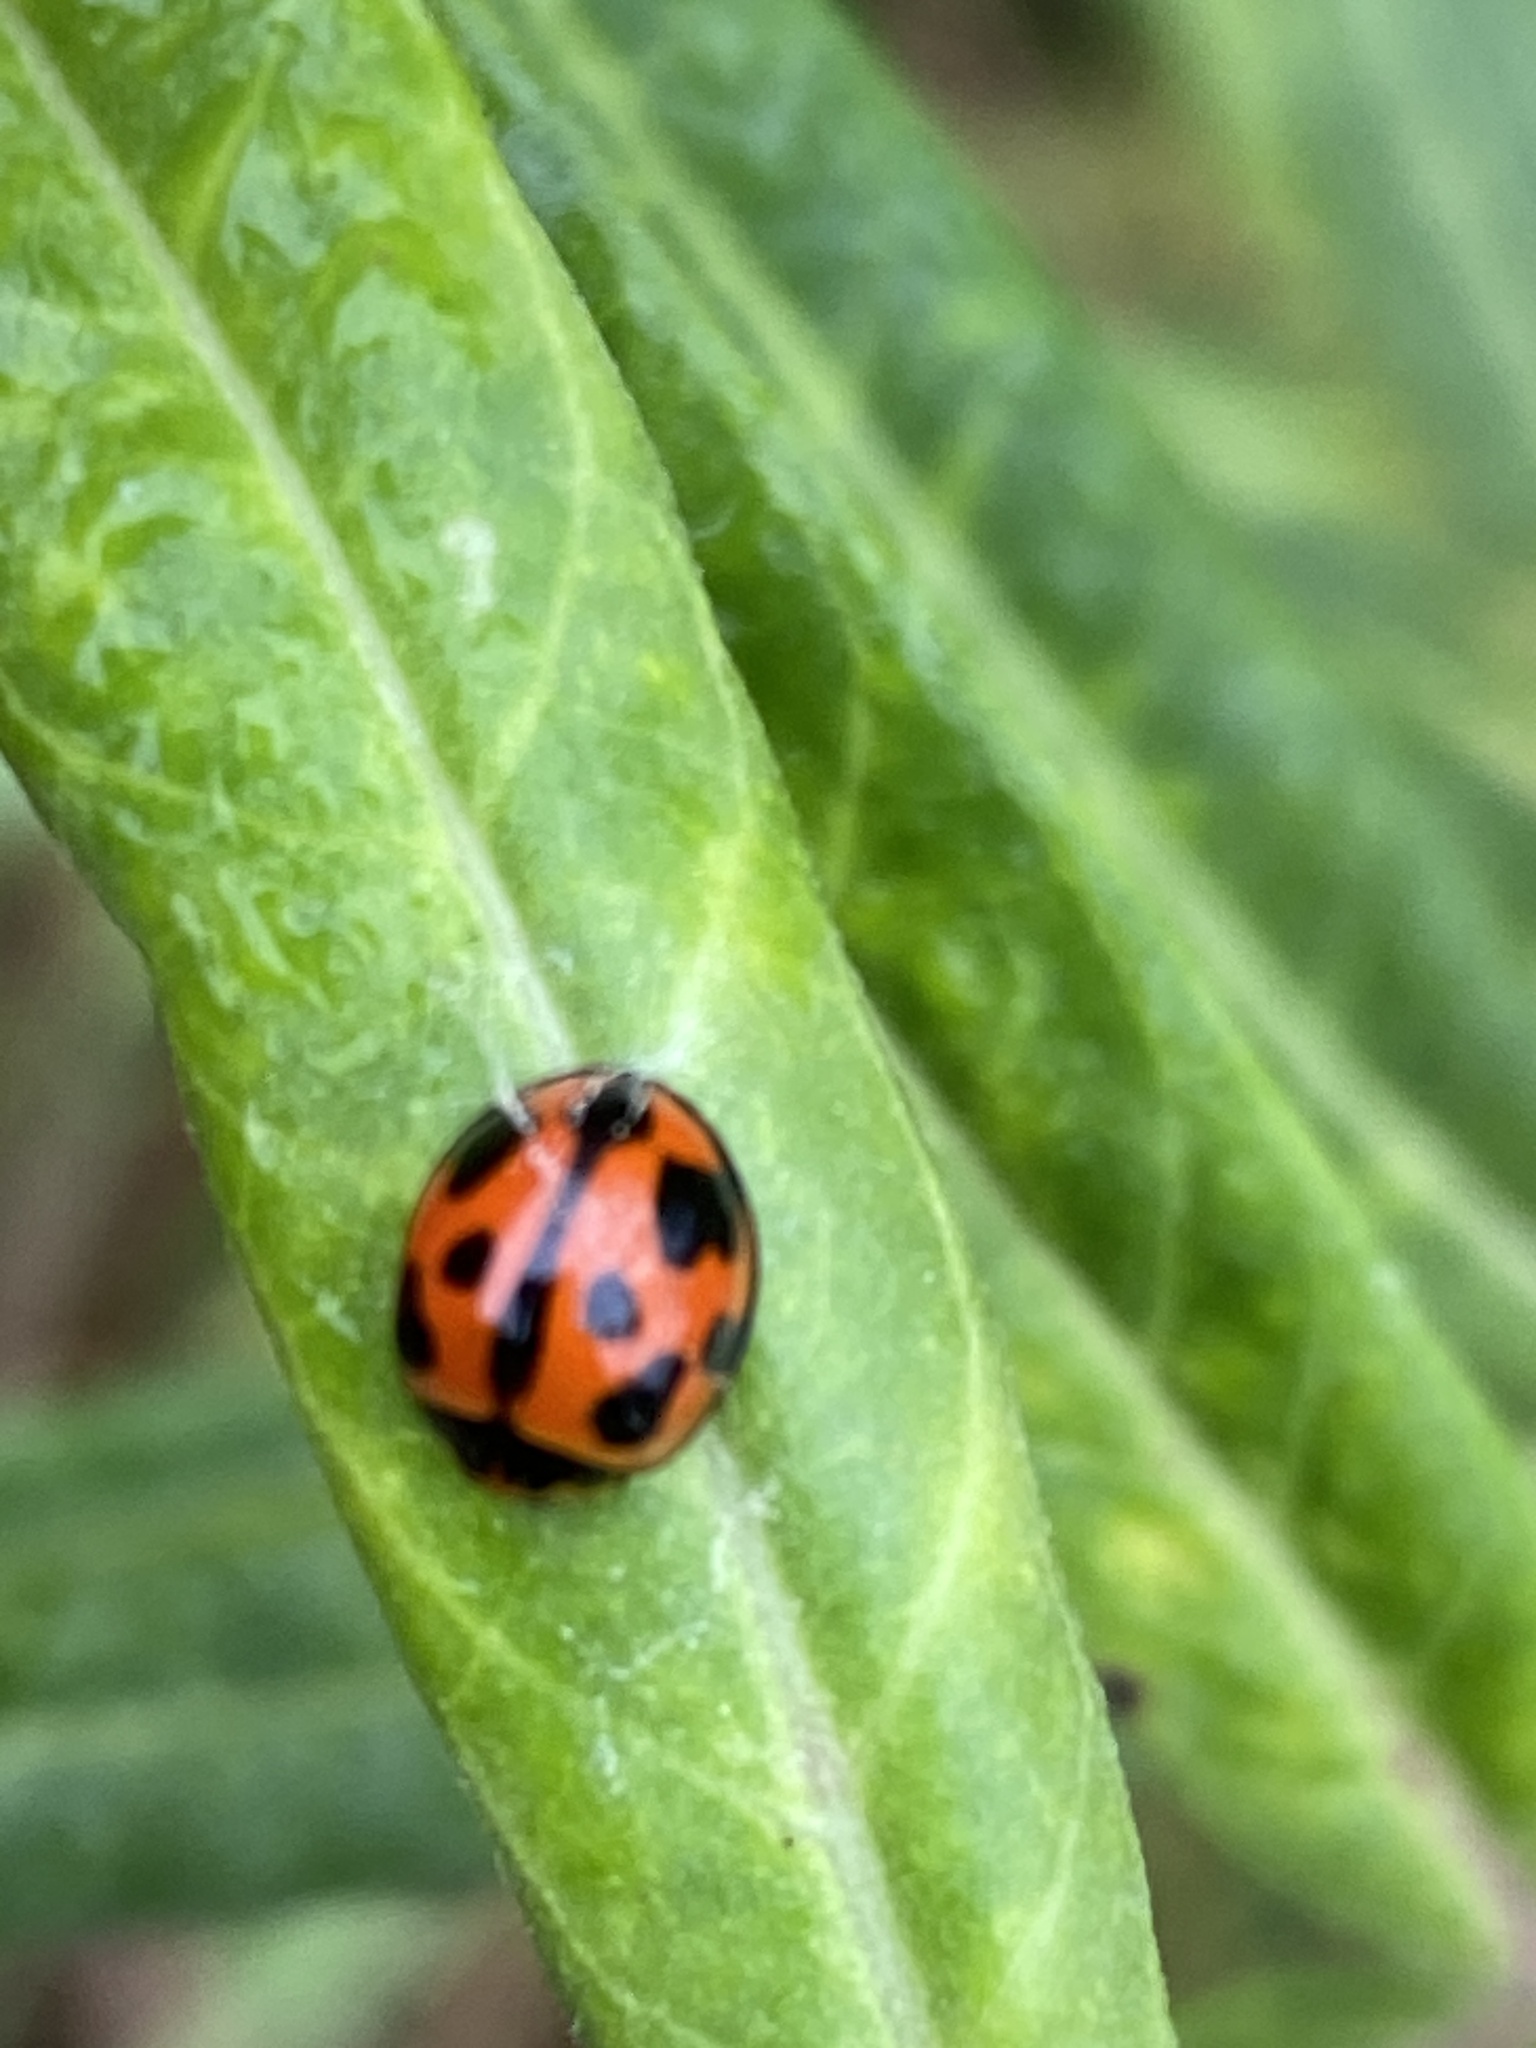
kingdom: Animalia
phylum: Arthropoda
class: Insecta
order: Coleoptera
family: Coccinellidae
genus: Coelophora
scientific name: Coelophora inaequalis
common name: Common australian lady beetle
